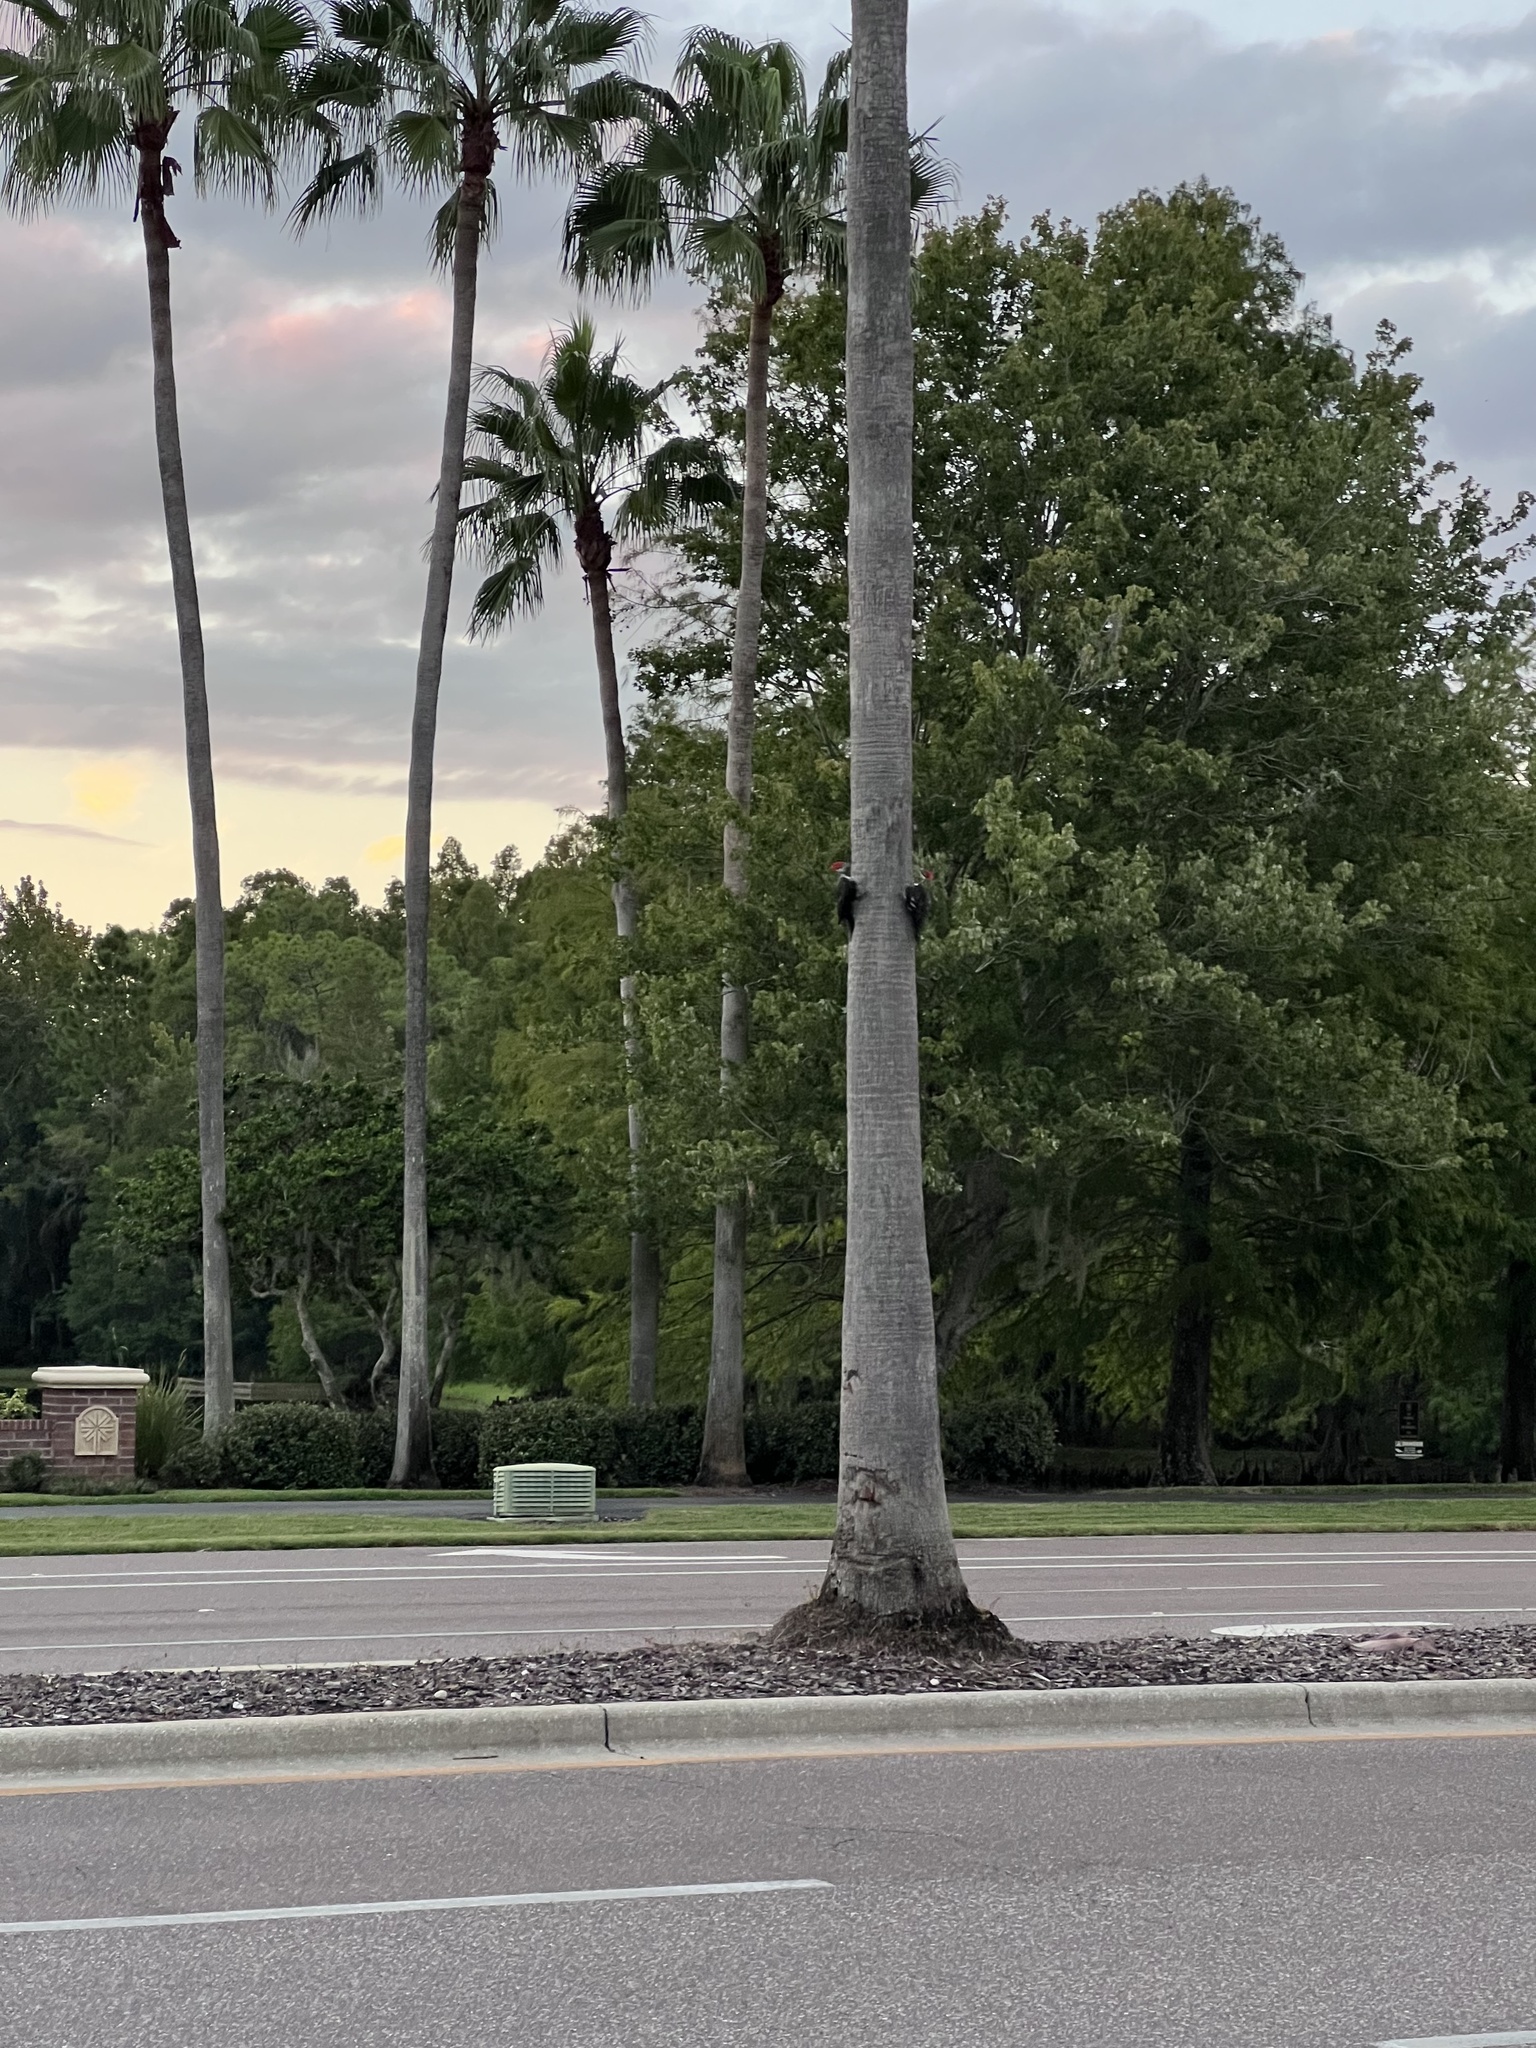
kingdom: Animalia
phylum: Chordata
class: Aves
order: Piciformes
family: Picidae
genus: Dryocopus
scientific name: Dryocopus pileatus
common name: Pileated woodpecker
